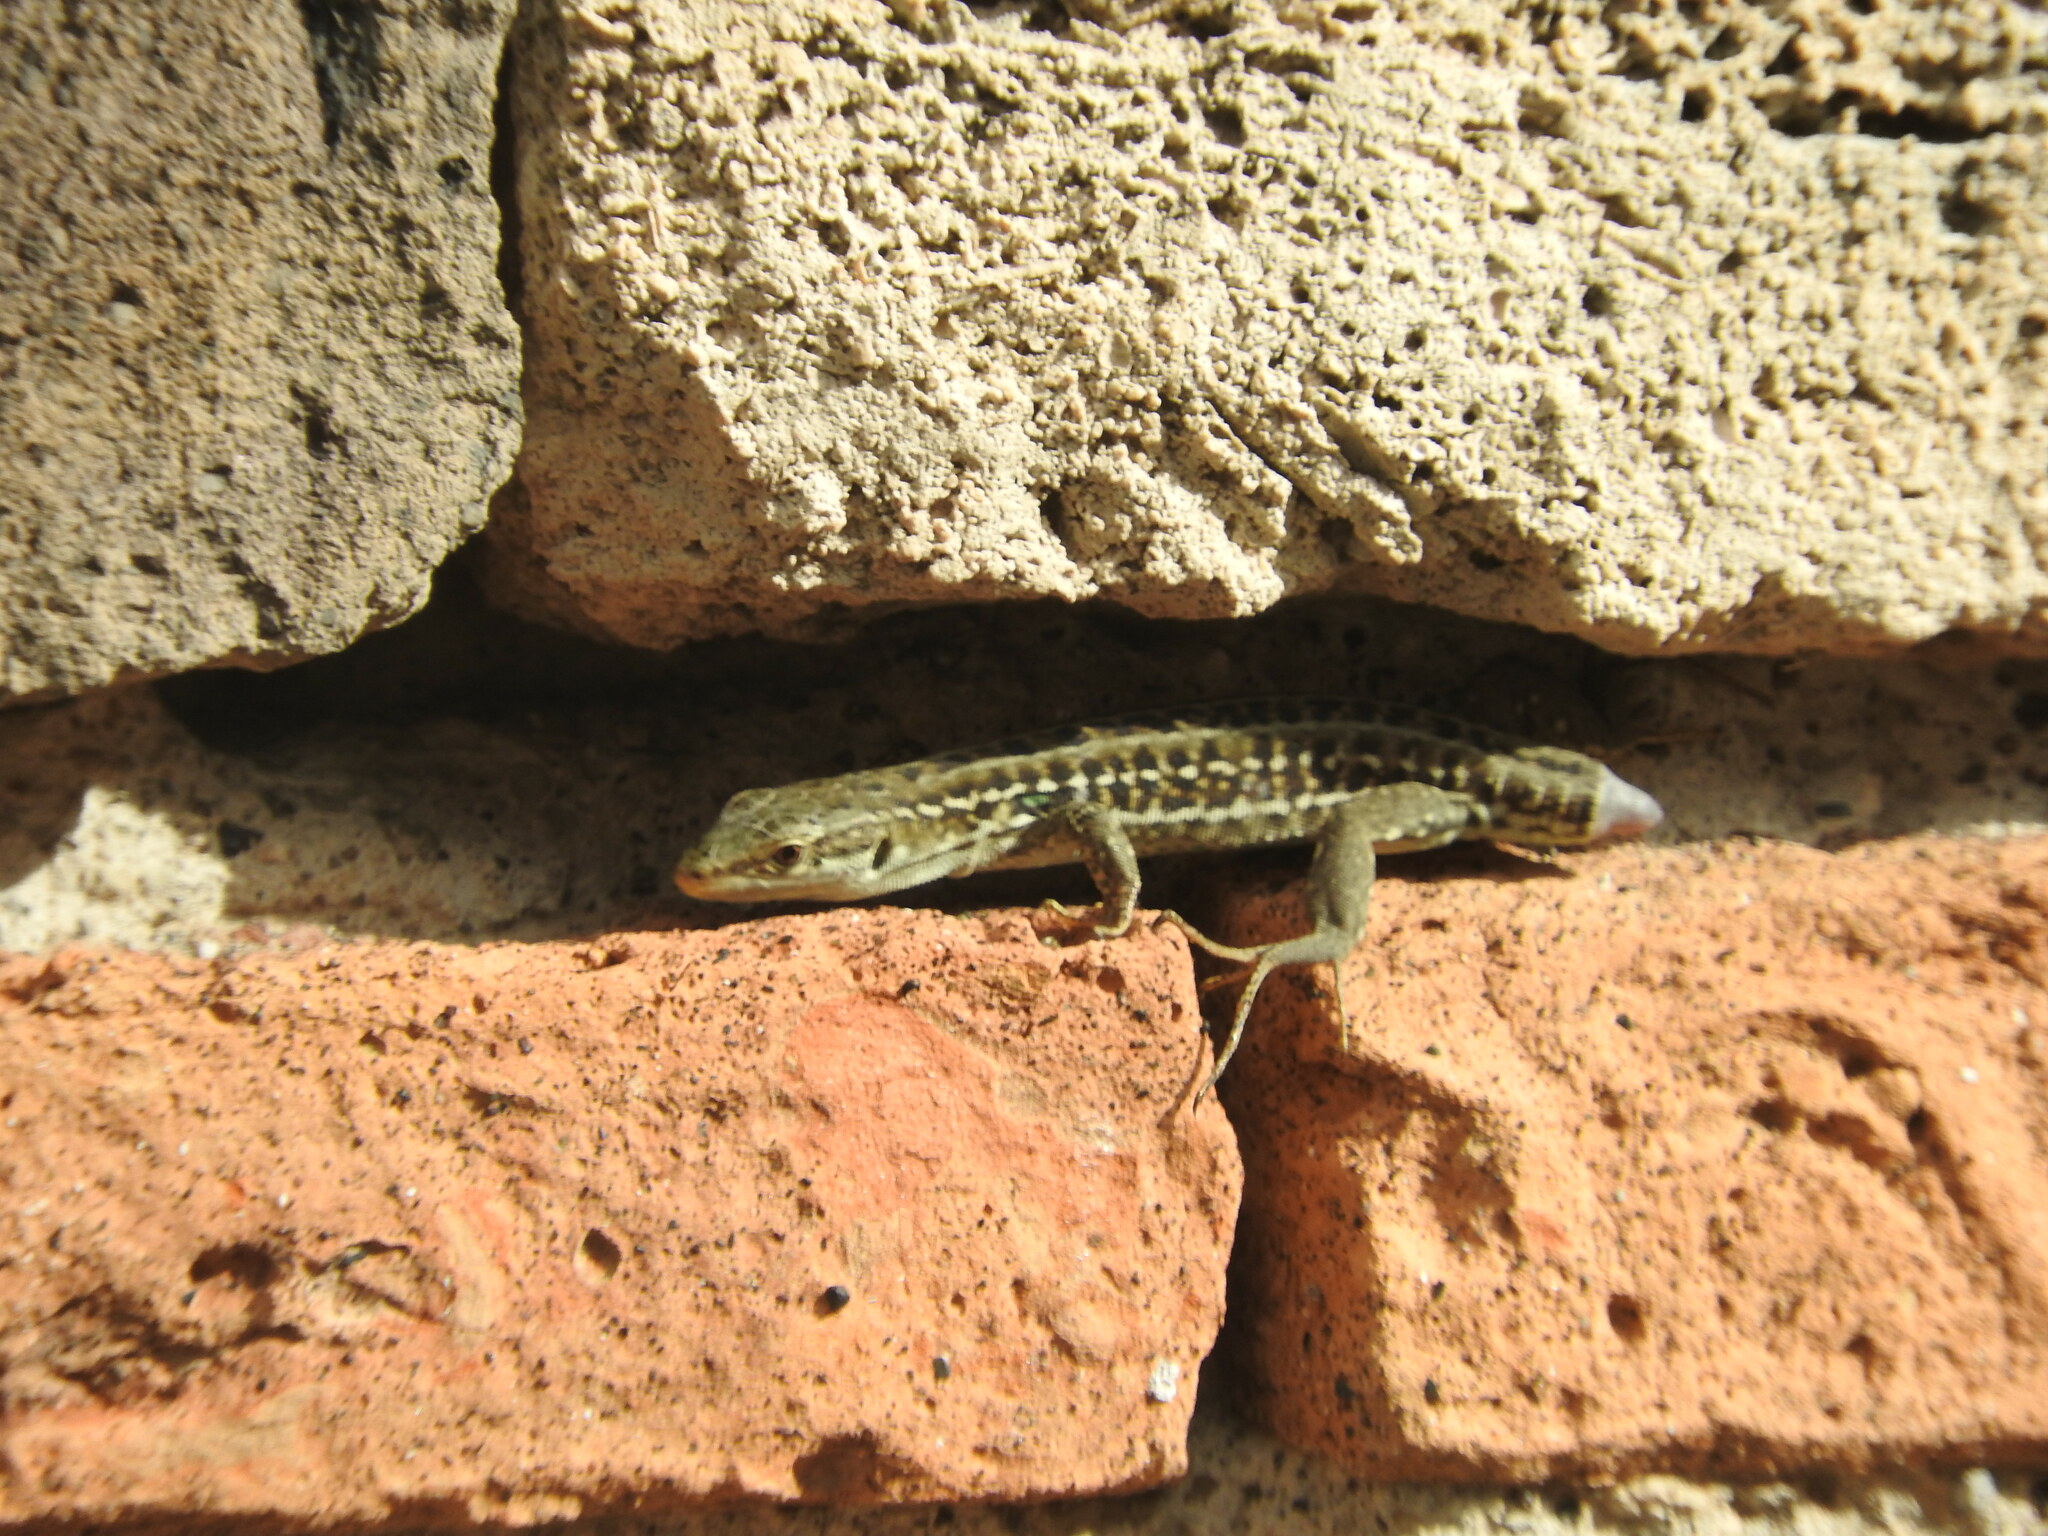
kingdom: Animalia
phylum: Chordata
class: Squamata
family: Lacertidae
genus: Podarcis
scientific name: Podarcis siculus
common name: Italian wall lizard
